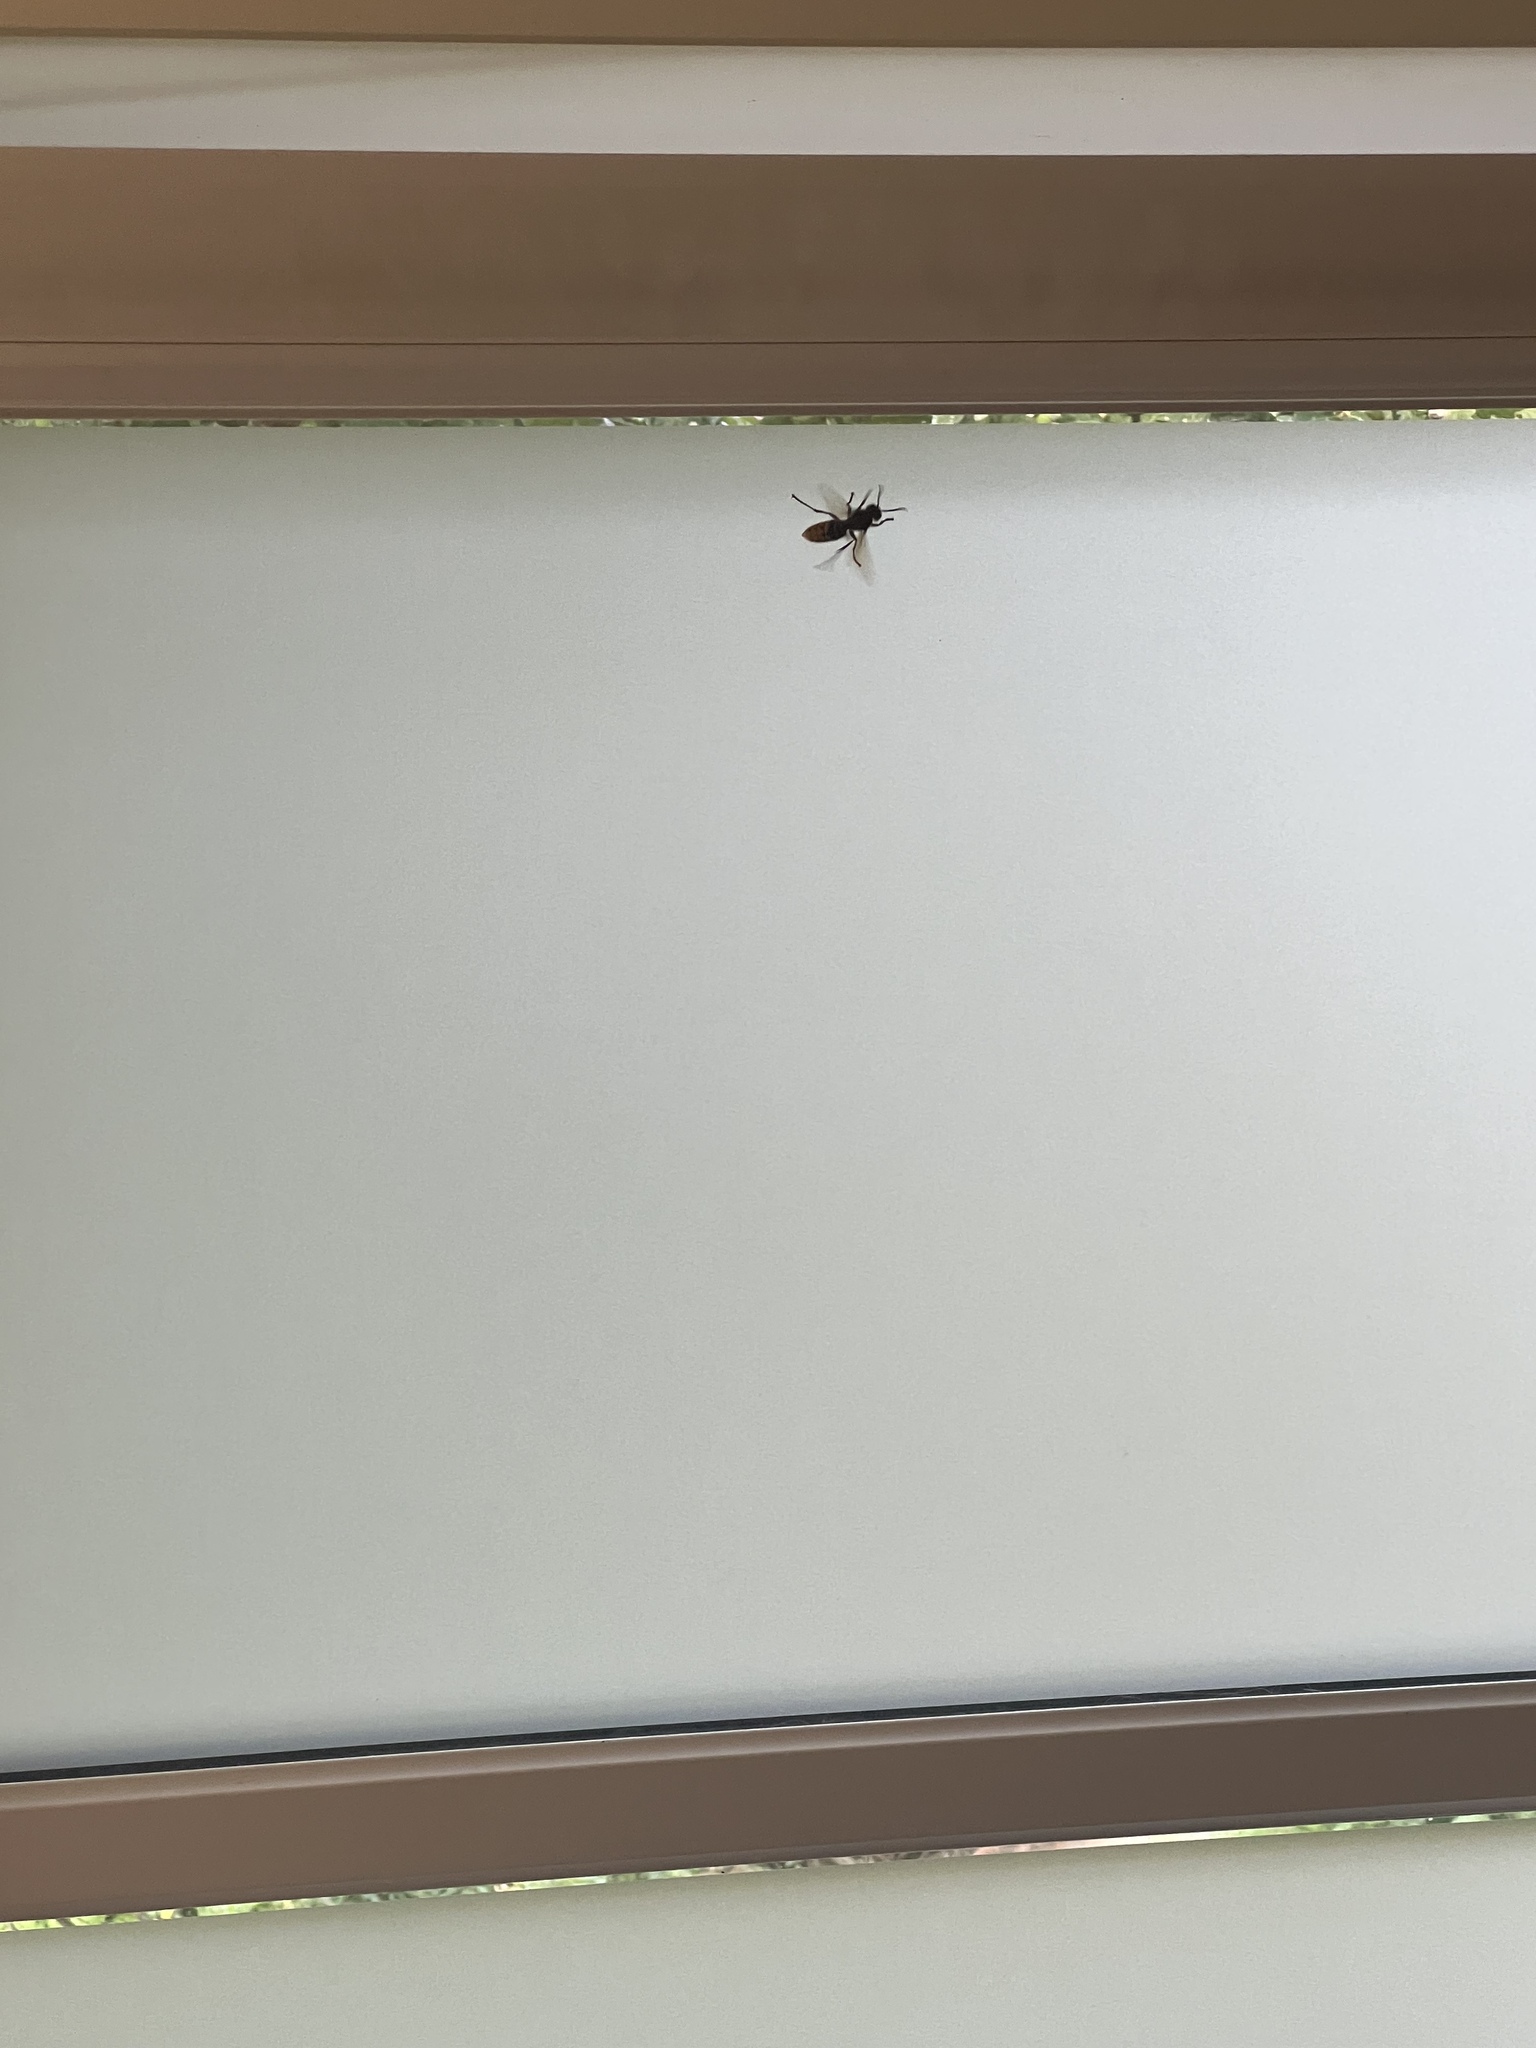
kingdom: Animalia
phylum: Arthropoda
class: Insecta
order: Hymenoptera
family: Vespidae
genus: Vespa
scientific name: Vespa crabro
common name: Hornet
